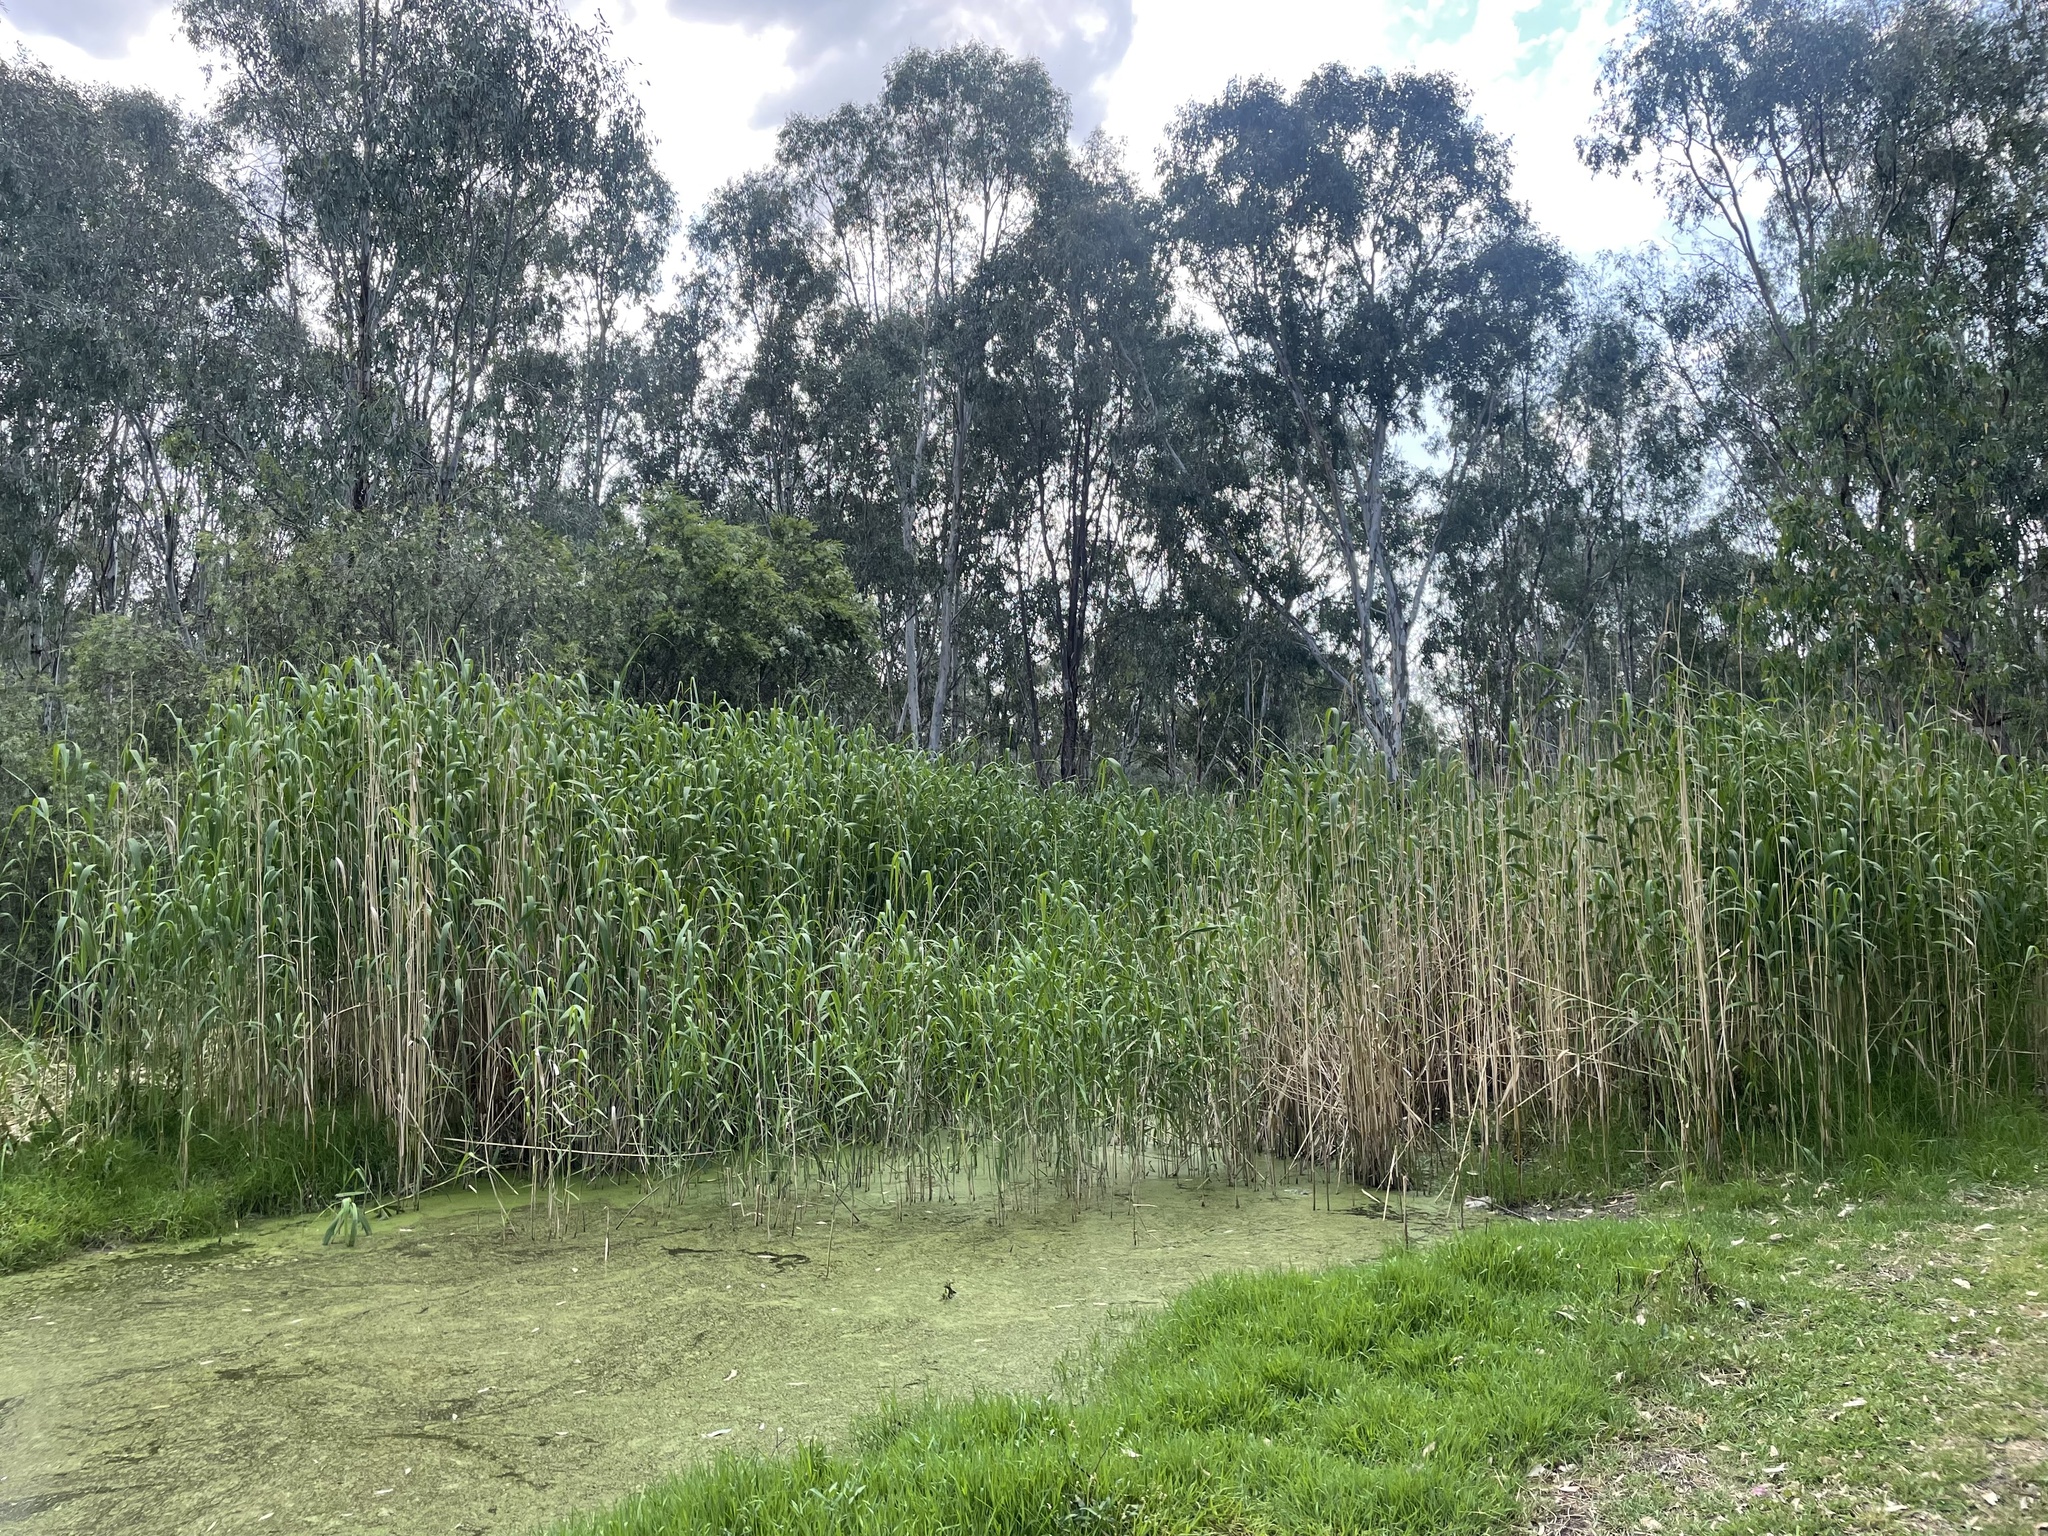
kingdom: Plantae
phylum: Tracheophyta
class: Liliopsida
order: Poales
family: Poaceae
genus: Phragmites
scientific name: Phragmites australis
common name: Common reed
